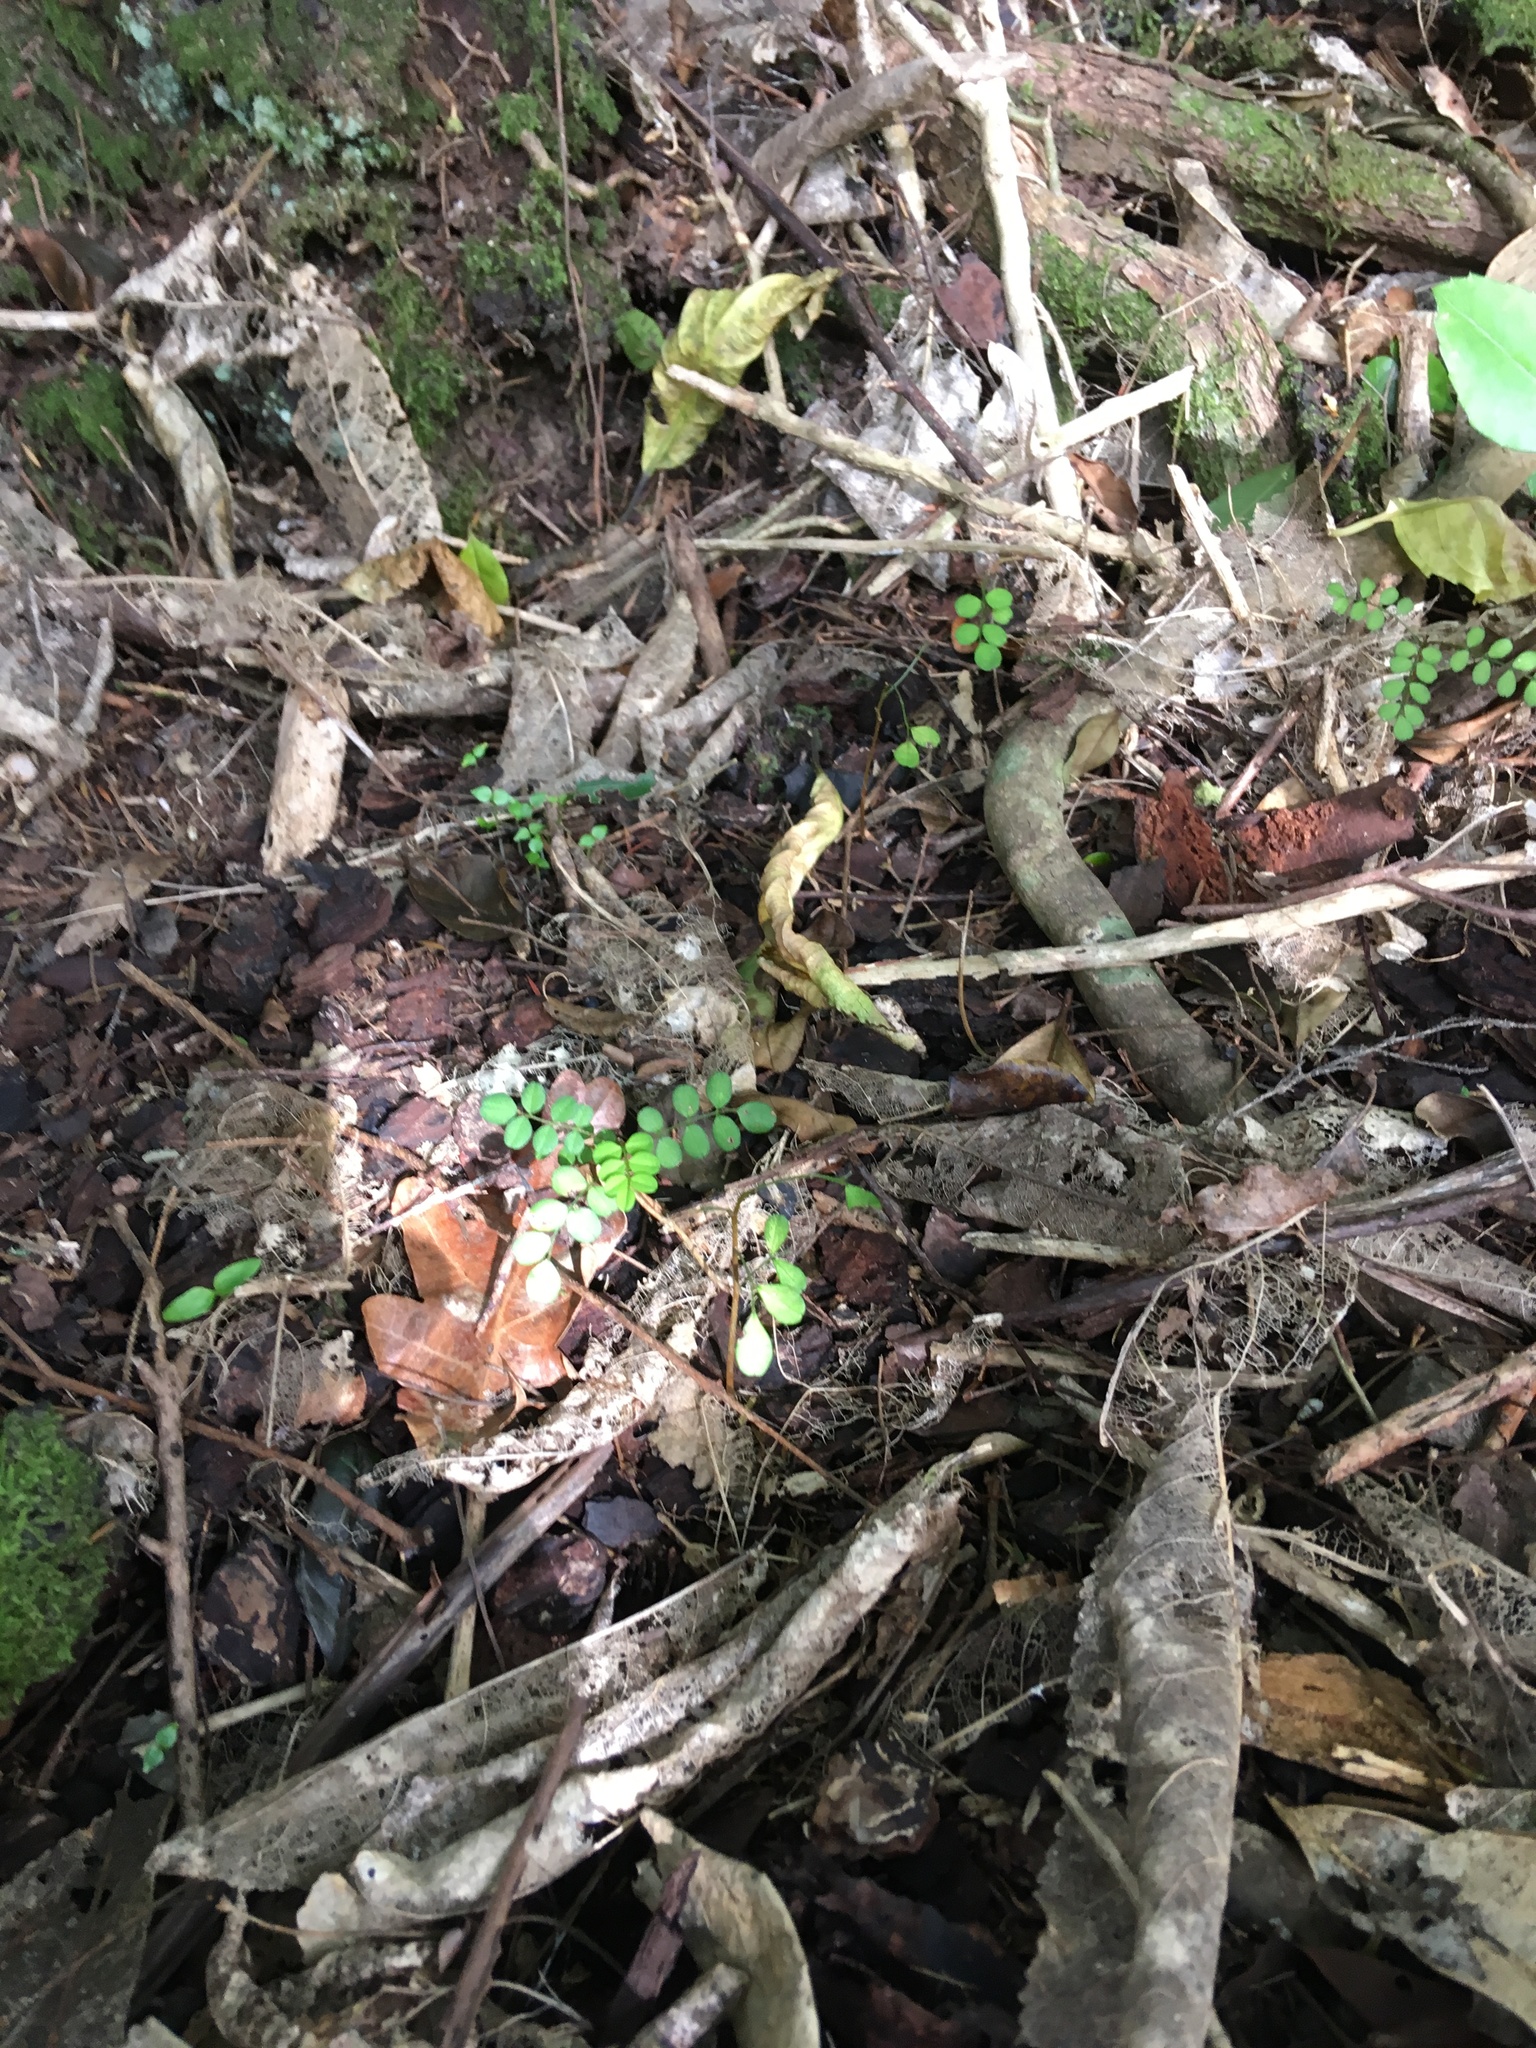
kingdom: Plantae
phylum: Tracheophyta
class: Magnoliopsida
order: Fabales
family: Fabaceae
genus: Sophora
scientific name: Sophora chathamica
